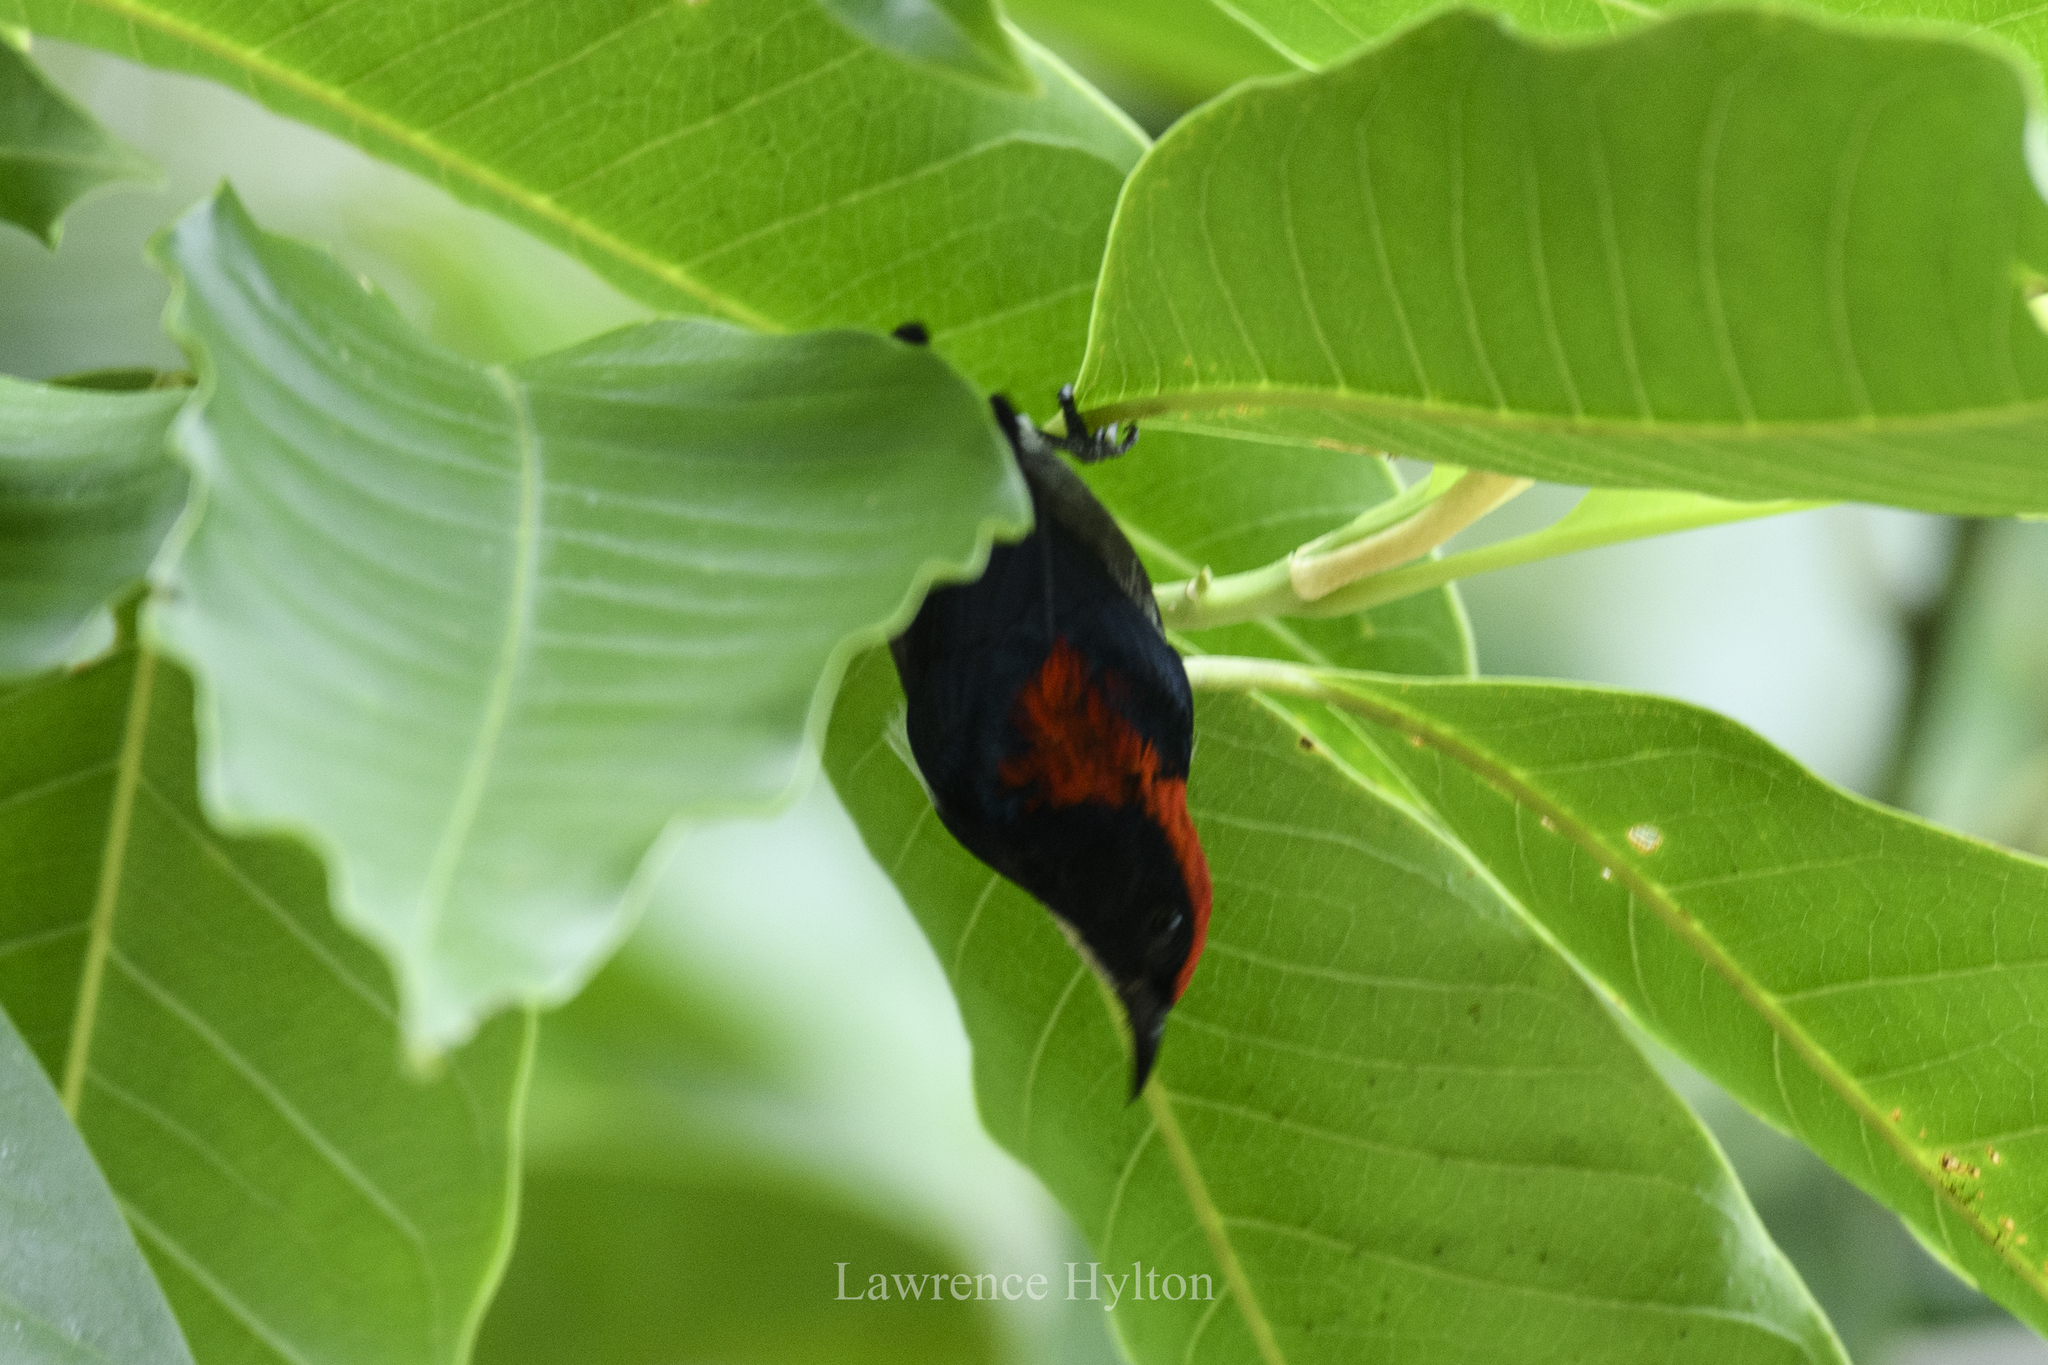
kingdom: Animalia
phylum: Chordata
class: Aves
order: Passeriformes
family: Dicaeidae
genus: Dicaeum
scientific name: Dicaeum cruentatum
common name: Scarlet-backed flowerpecker
